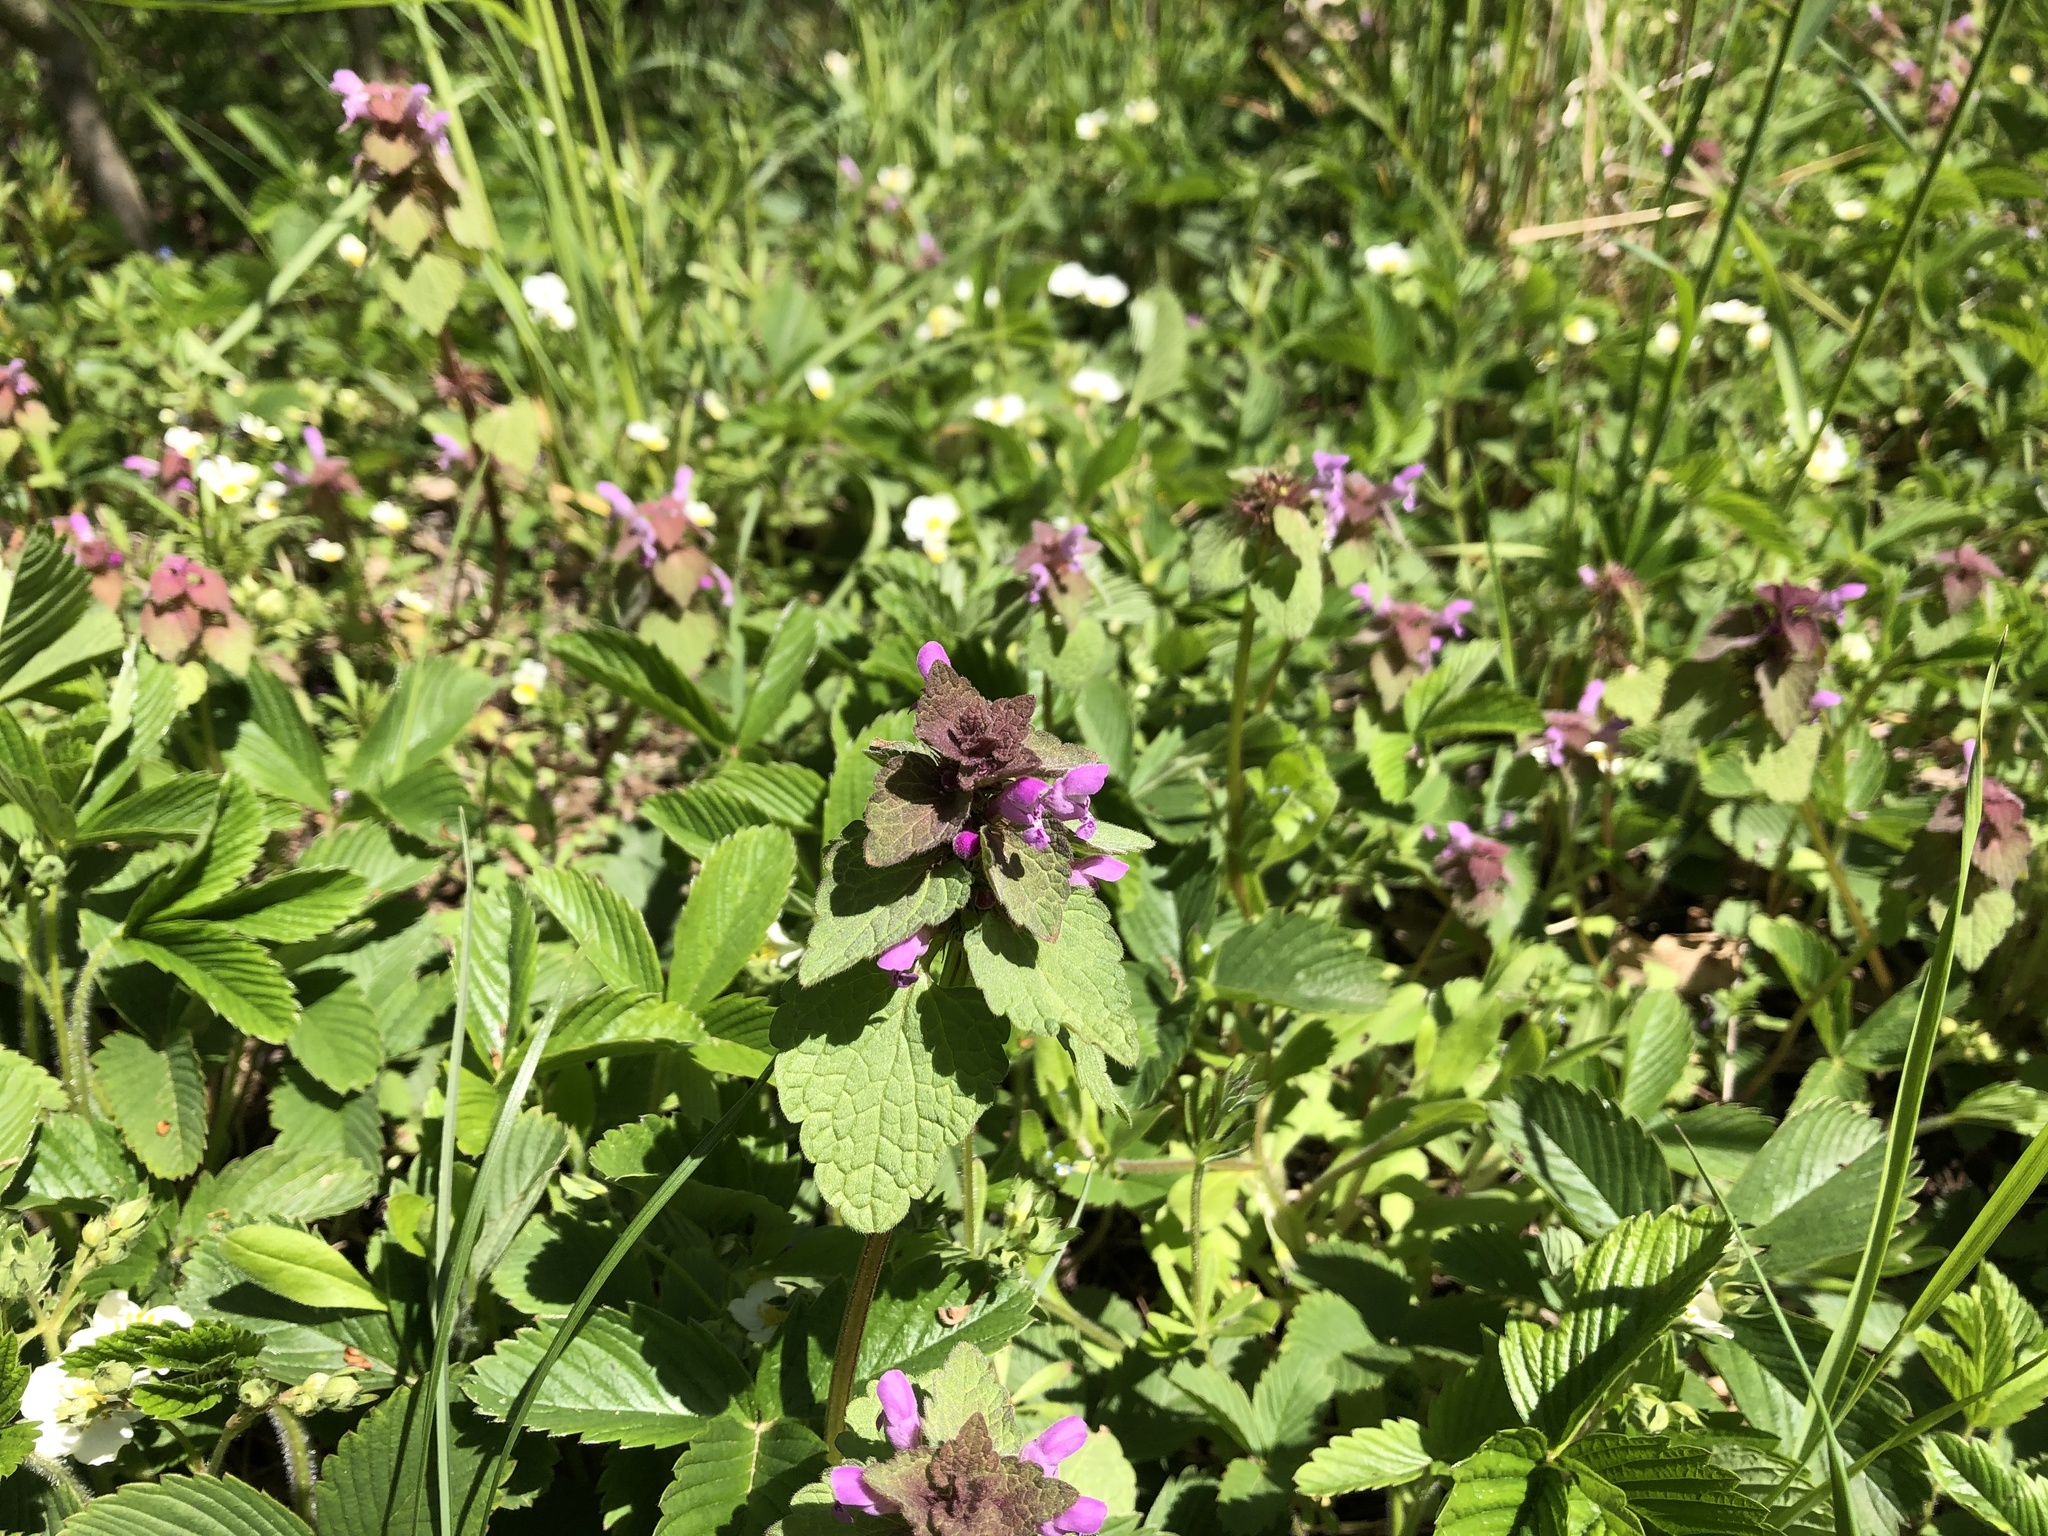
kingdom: Plantae
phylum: Tracheophyta
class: Magnoliopsida
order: Lamiales
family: Lamiaceae
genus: Lamium
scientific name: Lamium purpureum
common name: Red dead-nettle
